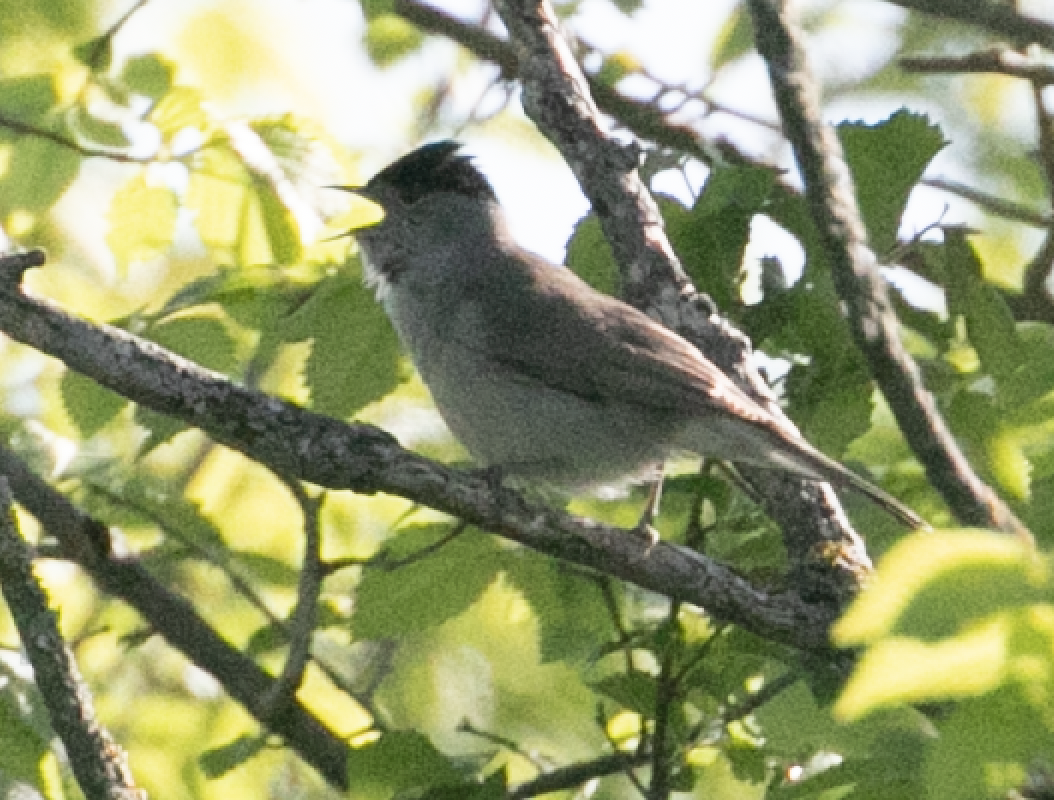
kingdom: Animalia
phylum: Chordata
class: Aves
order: Passeriformes
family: Sylviidae
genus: Sylvia
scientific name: Sylvia atricapilla
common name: Eurasian blackcap
